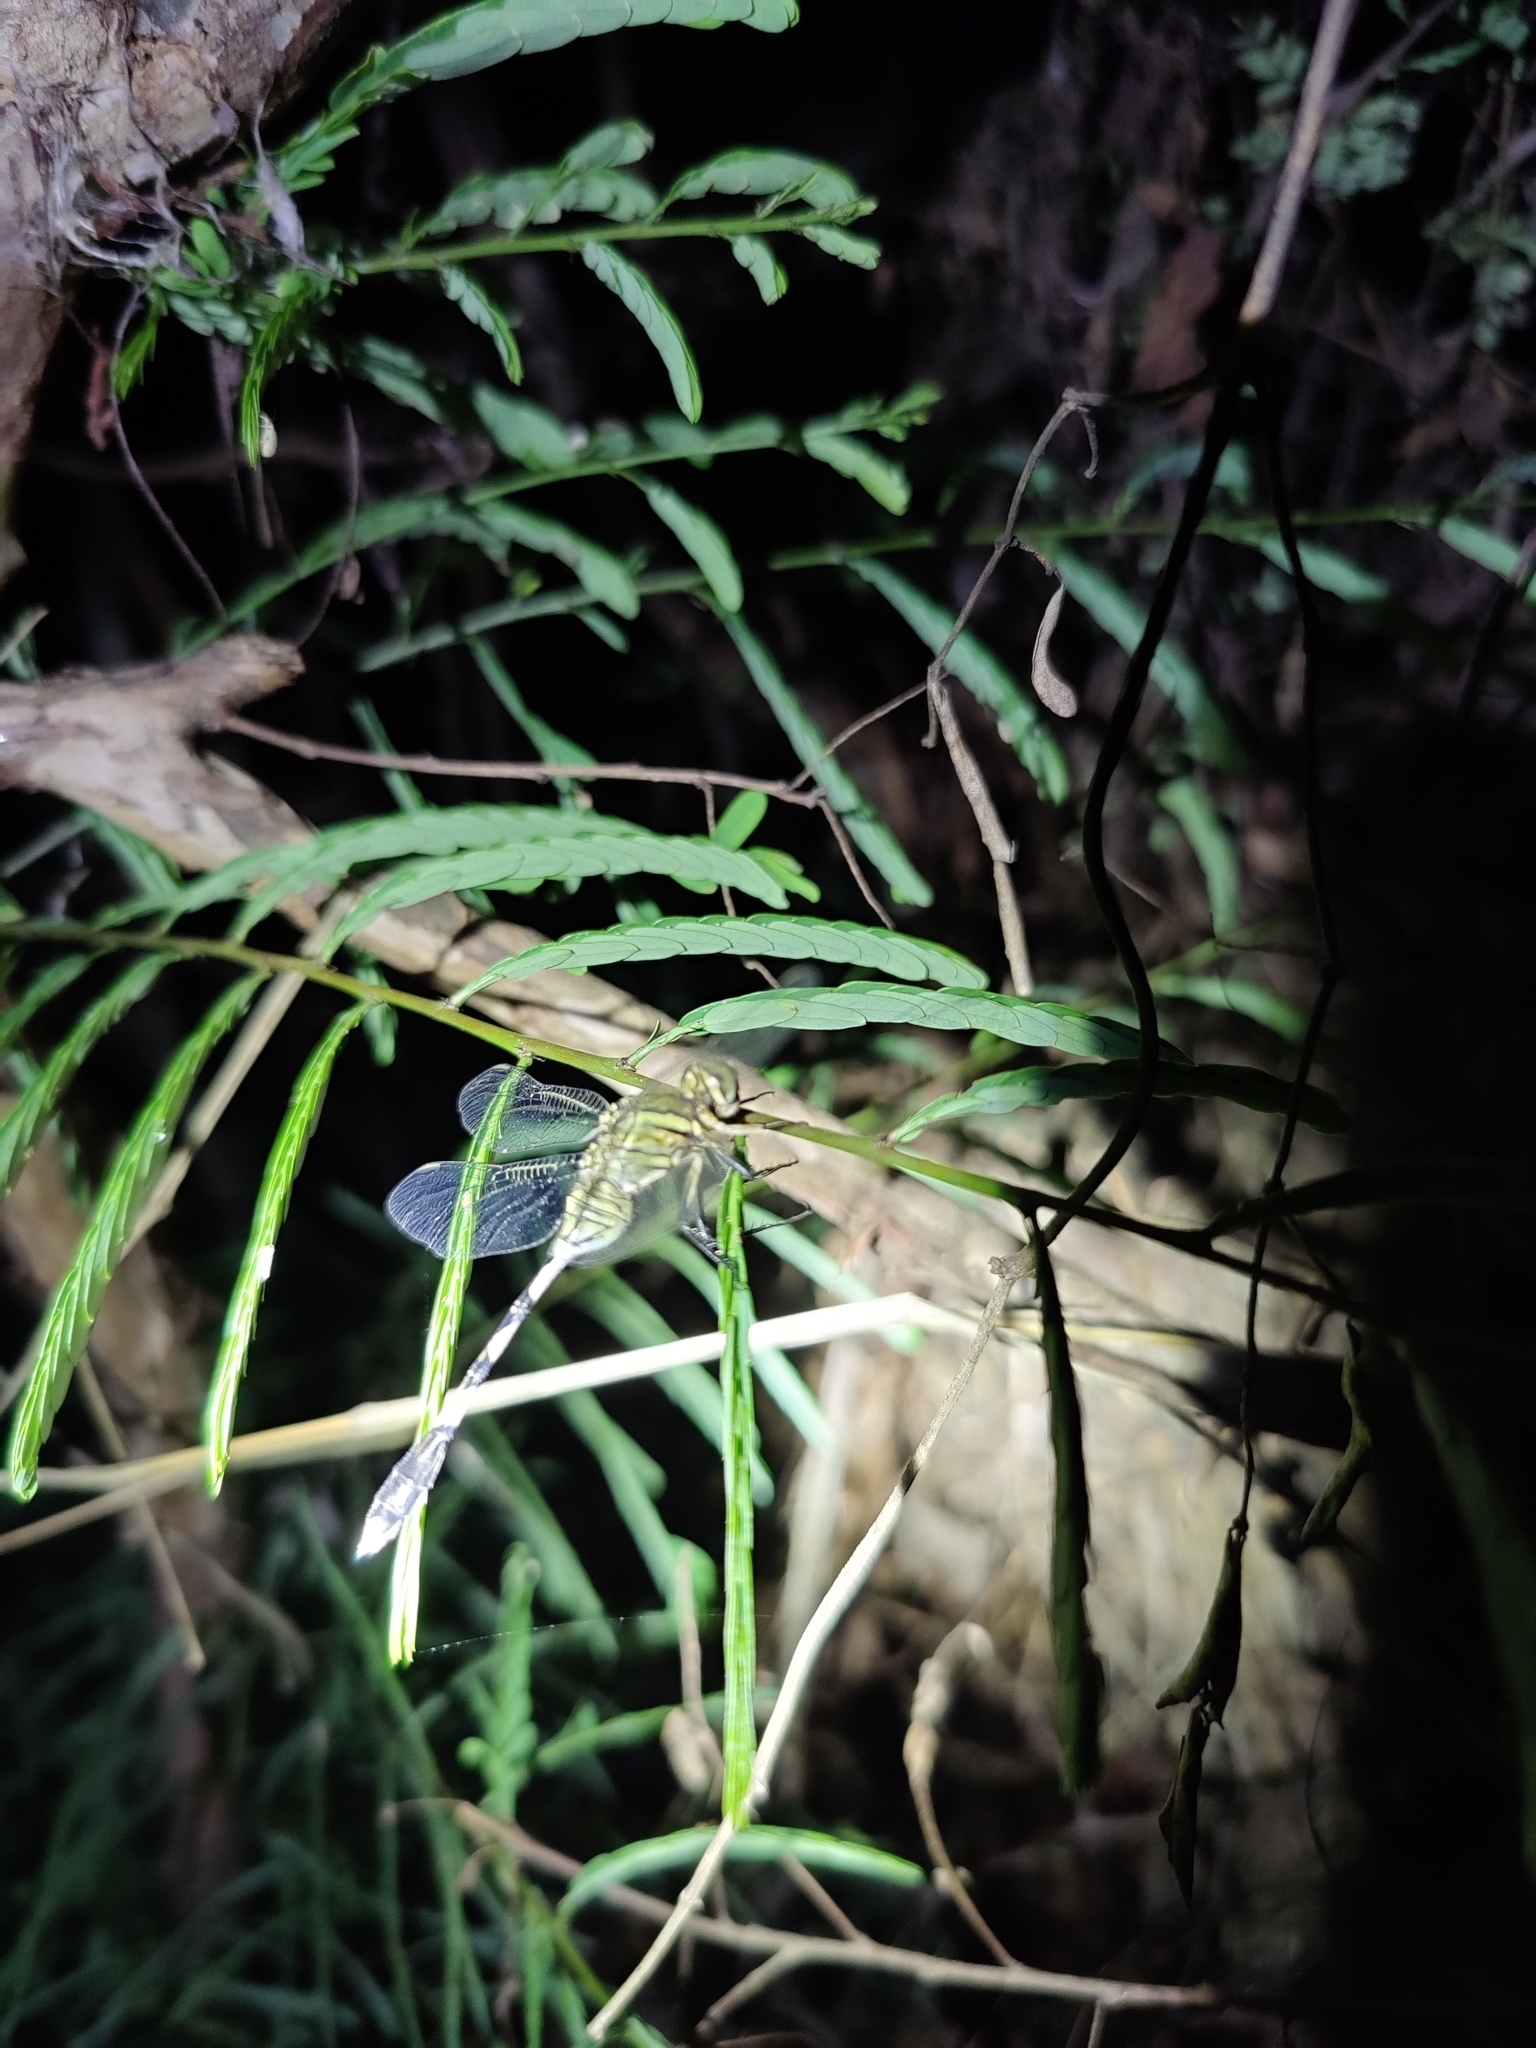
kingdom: Animalia
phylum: Arthropoda
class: Insecta
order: Odonata
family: Libellulidae
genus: Orthetrum
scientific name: Orthetrum sabina
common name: Slender skimmer
